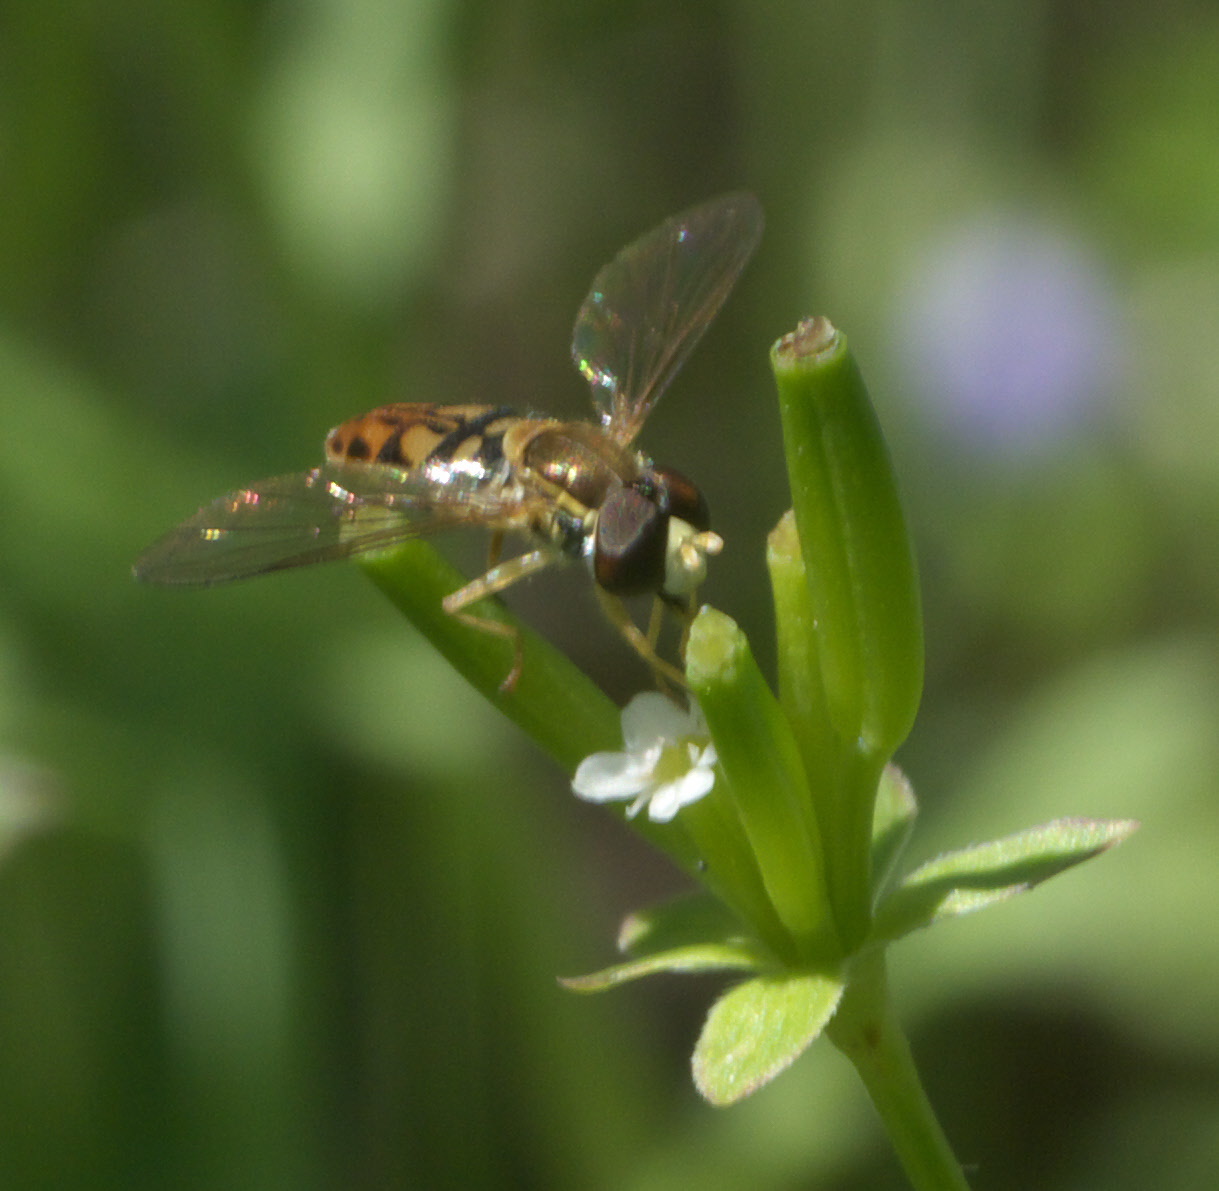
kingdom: Animalia
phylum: Arthropoda
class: Insecta
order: Diptera
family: Syrphidae
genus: Toxomerus
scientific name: Toxomerus marginatus
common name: Syrphid fly
